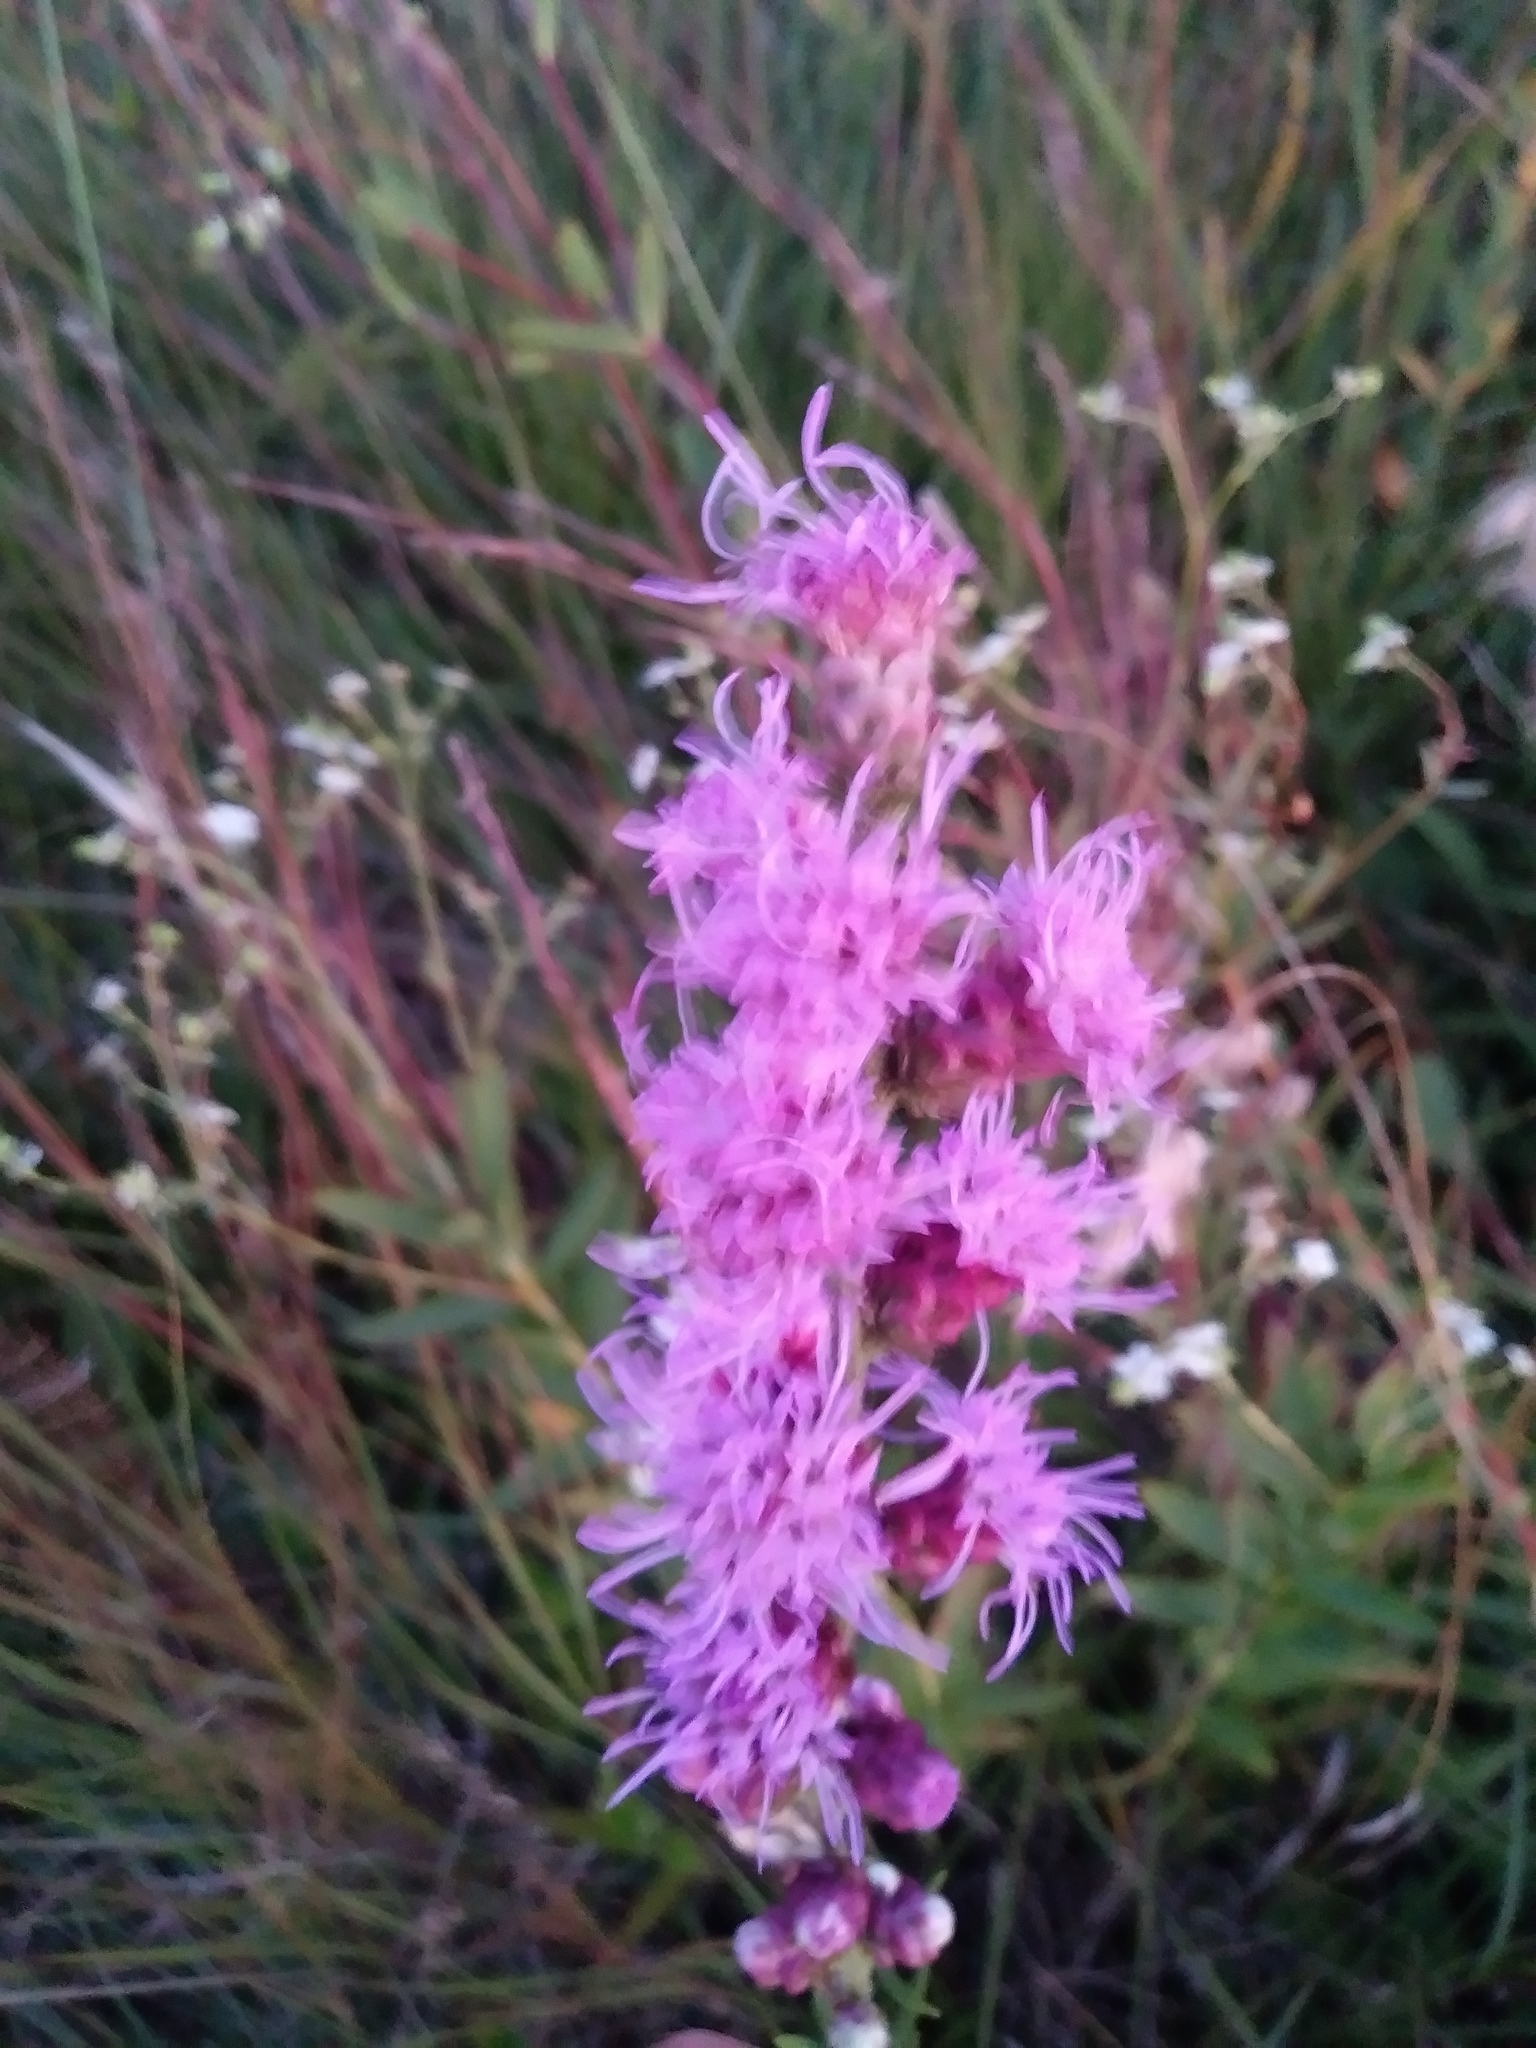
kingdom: Plantae
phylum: Tracheophyta
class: Magnoliopsida
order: Asterales
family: Asteraceae
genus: Liatris
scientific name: Liatris aspera
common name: Lacerate blazing-star
